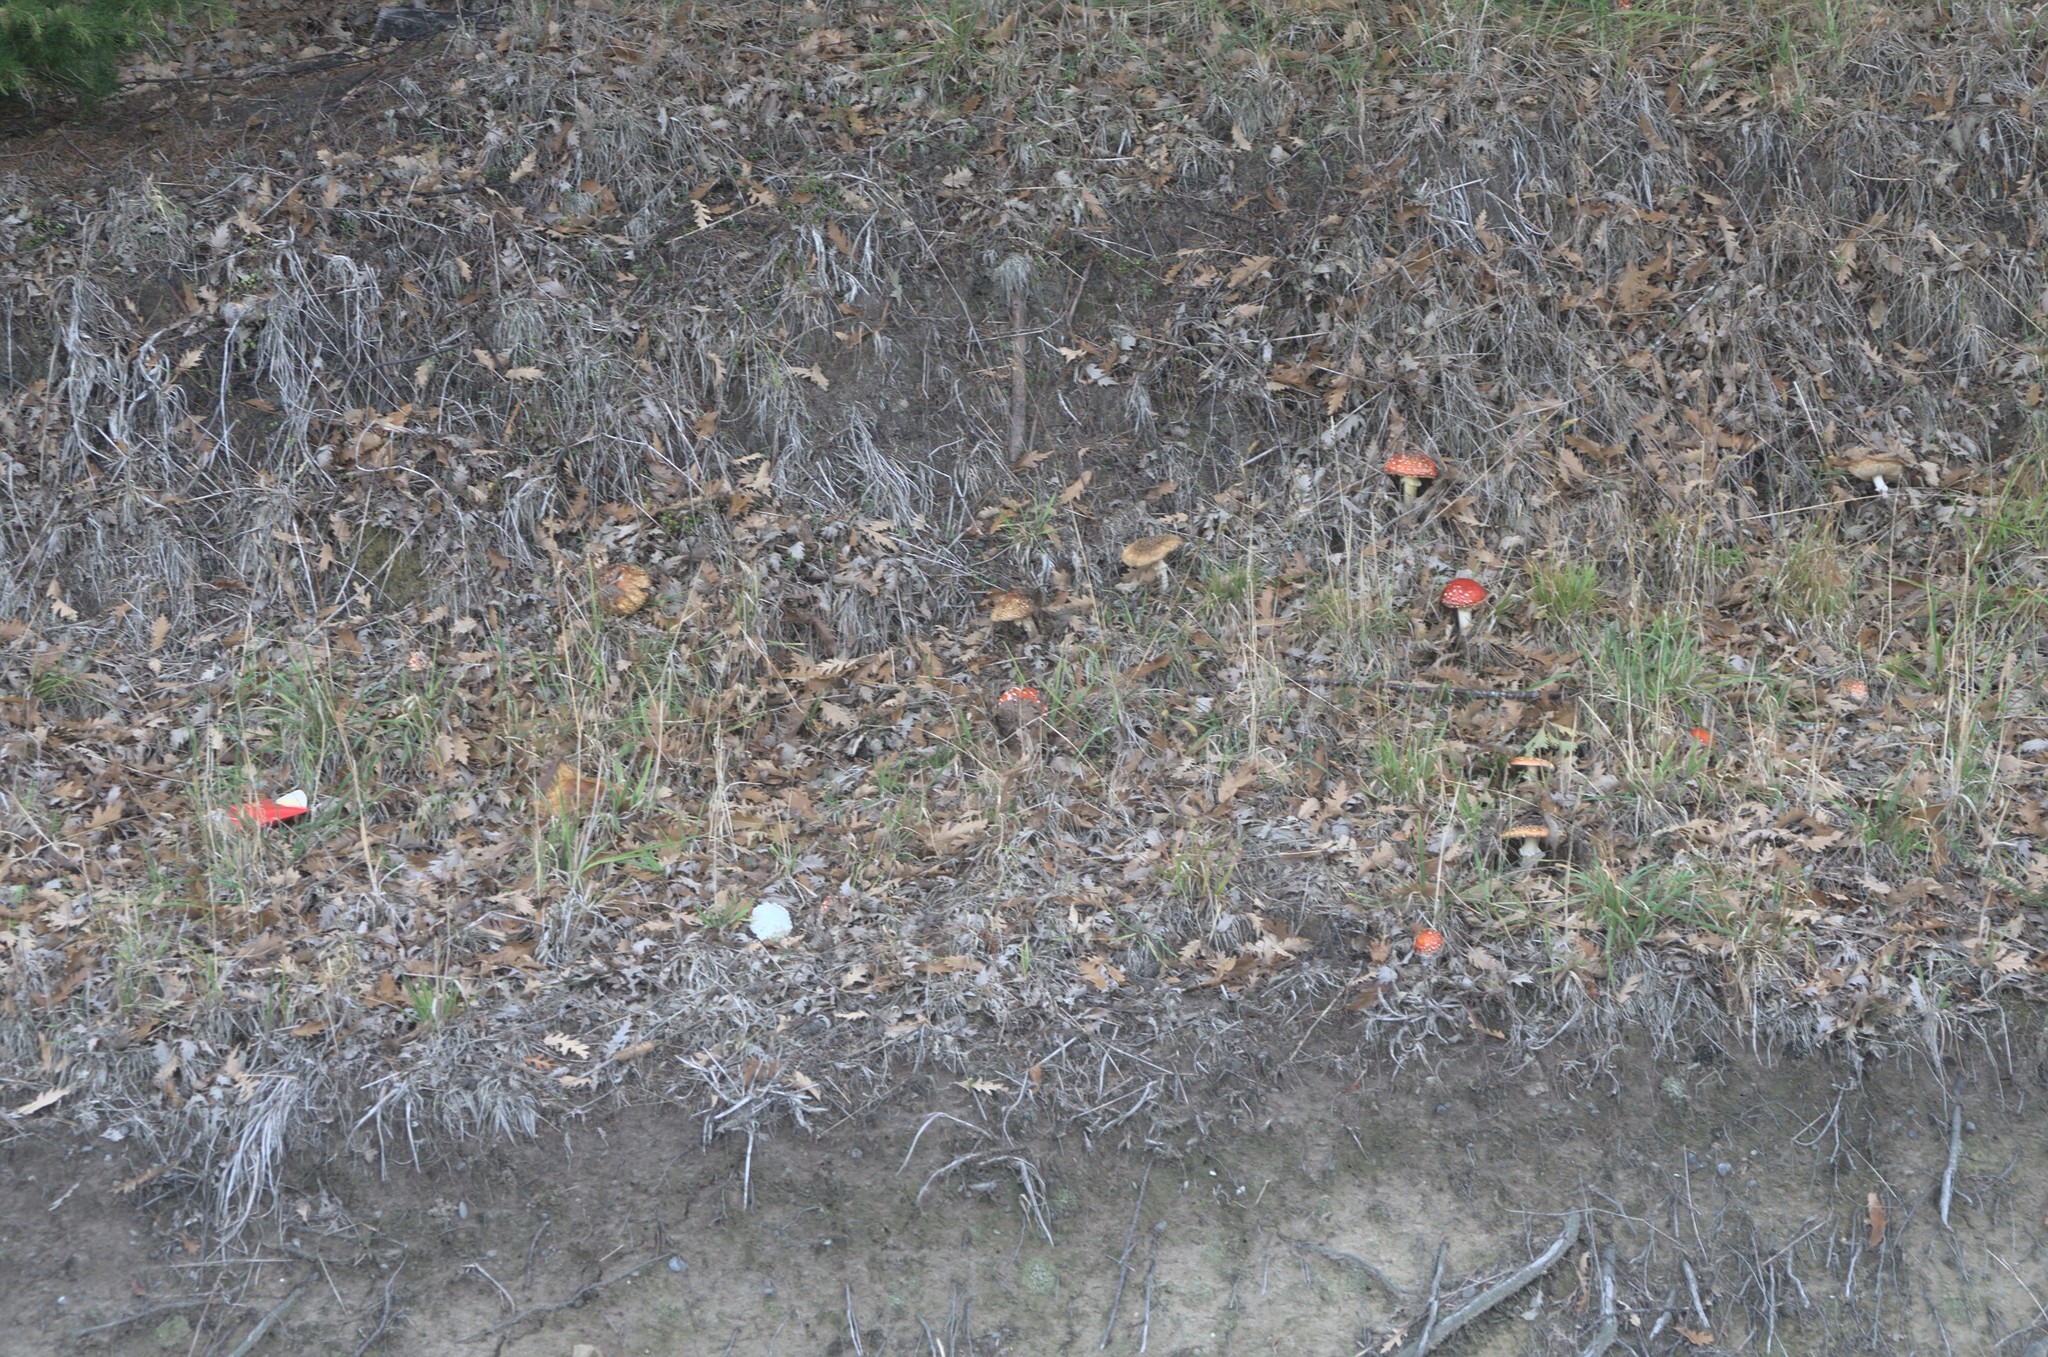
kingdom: Fungi
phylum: Basidiomycota
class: Agaricomycetes
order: Agaricales
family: Amanitaceae
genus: Amanita
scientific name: Amanita muscaria
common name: Fly agaric
